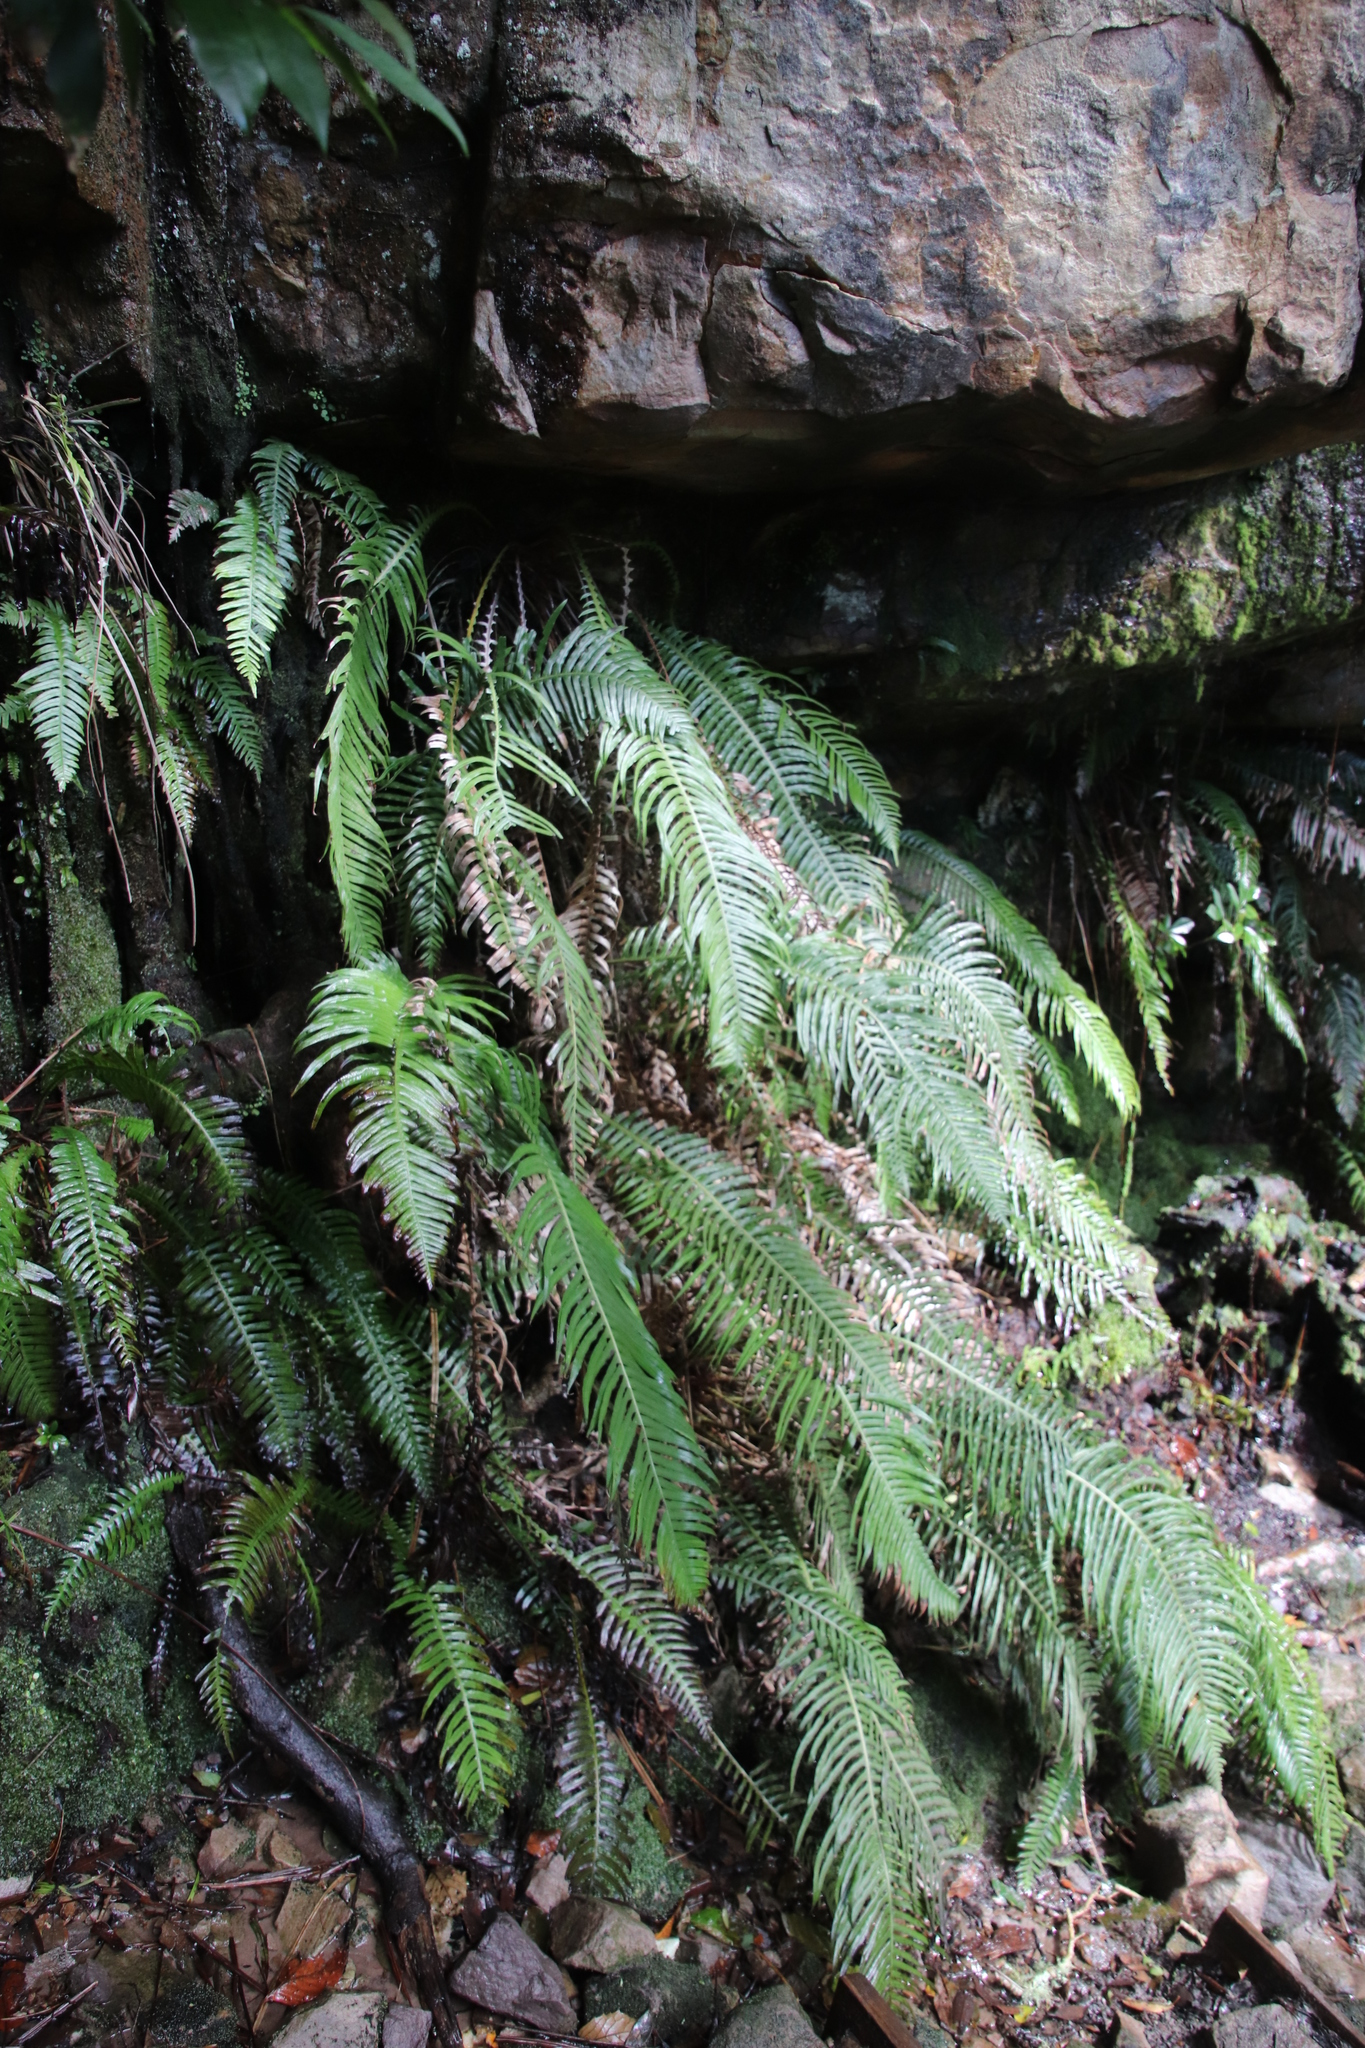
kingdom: Plantae
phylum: Tracheophyta
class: Polypodiopsida
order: Polypodiales
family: Blechnaceae
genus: Lomaridium
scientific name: Lomaridium attenuatum
